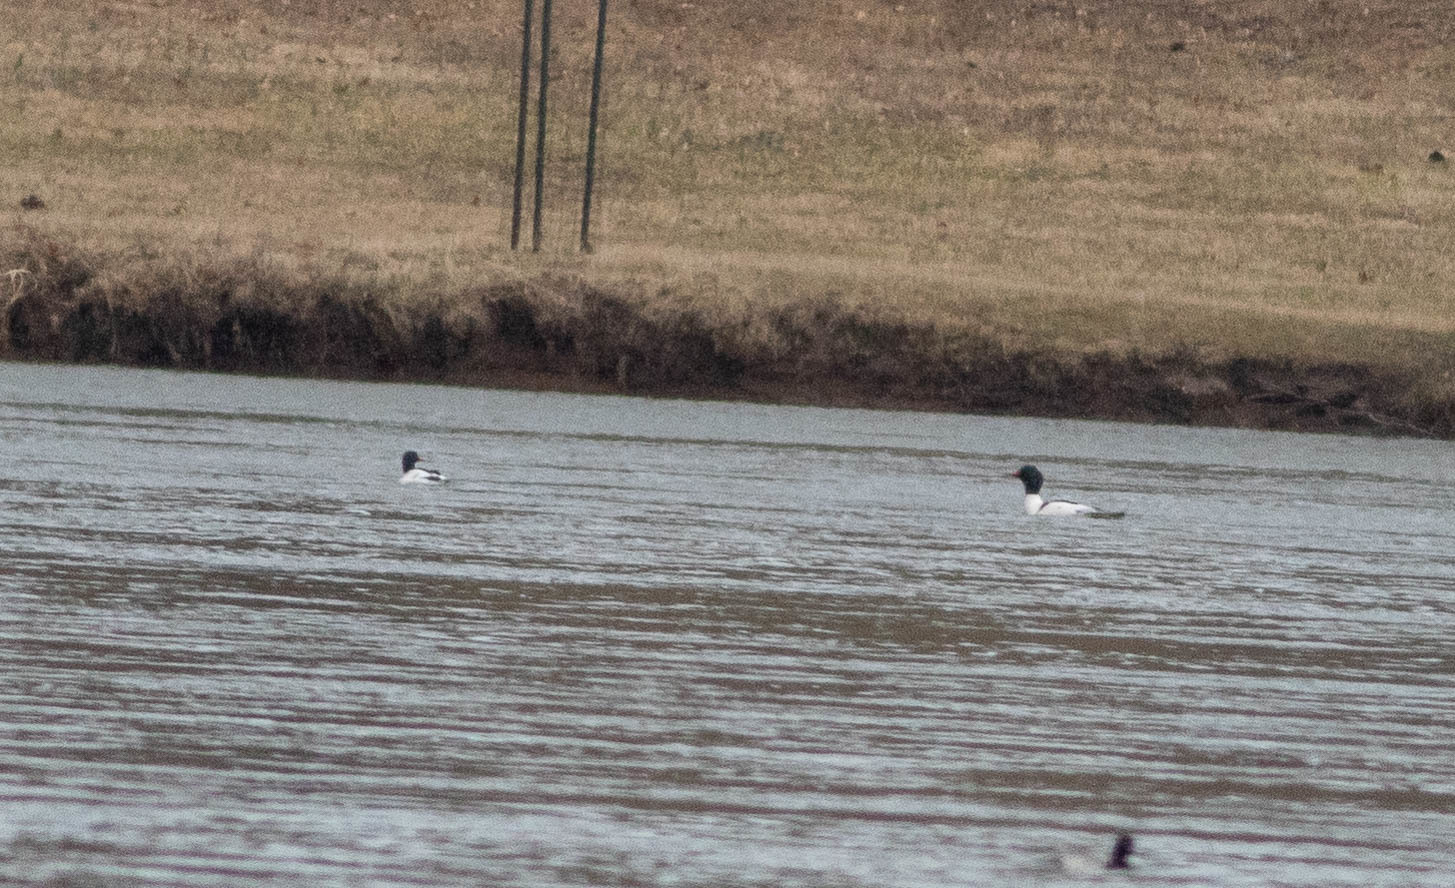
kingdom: Animalia
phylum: Chordata
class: Aves
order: Anseriformes
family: Anatidae
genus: Mergus
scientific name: Mergus merganser
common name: Common merganser
